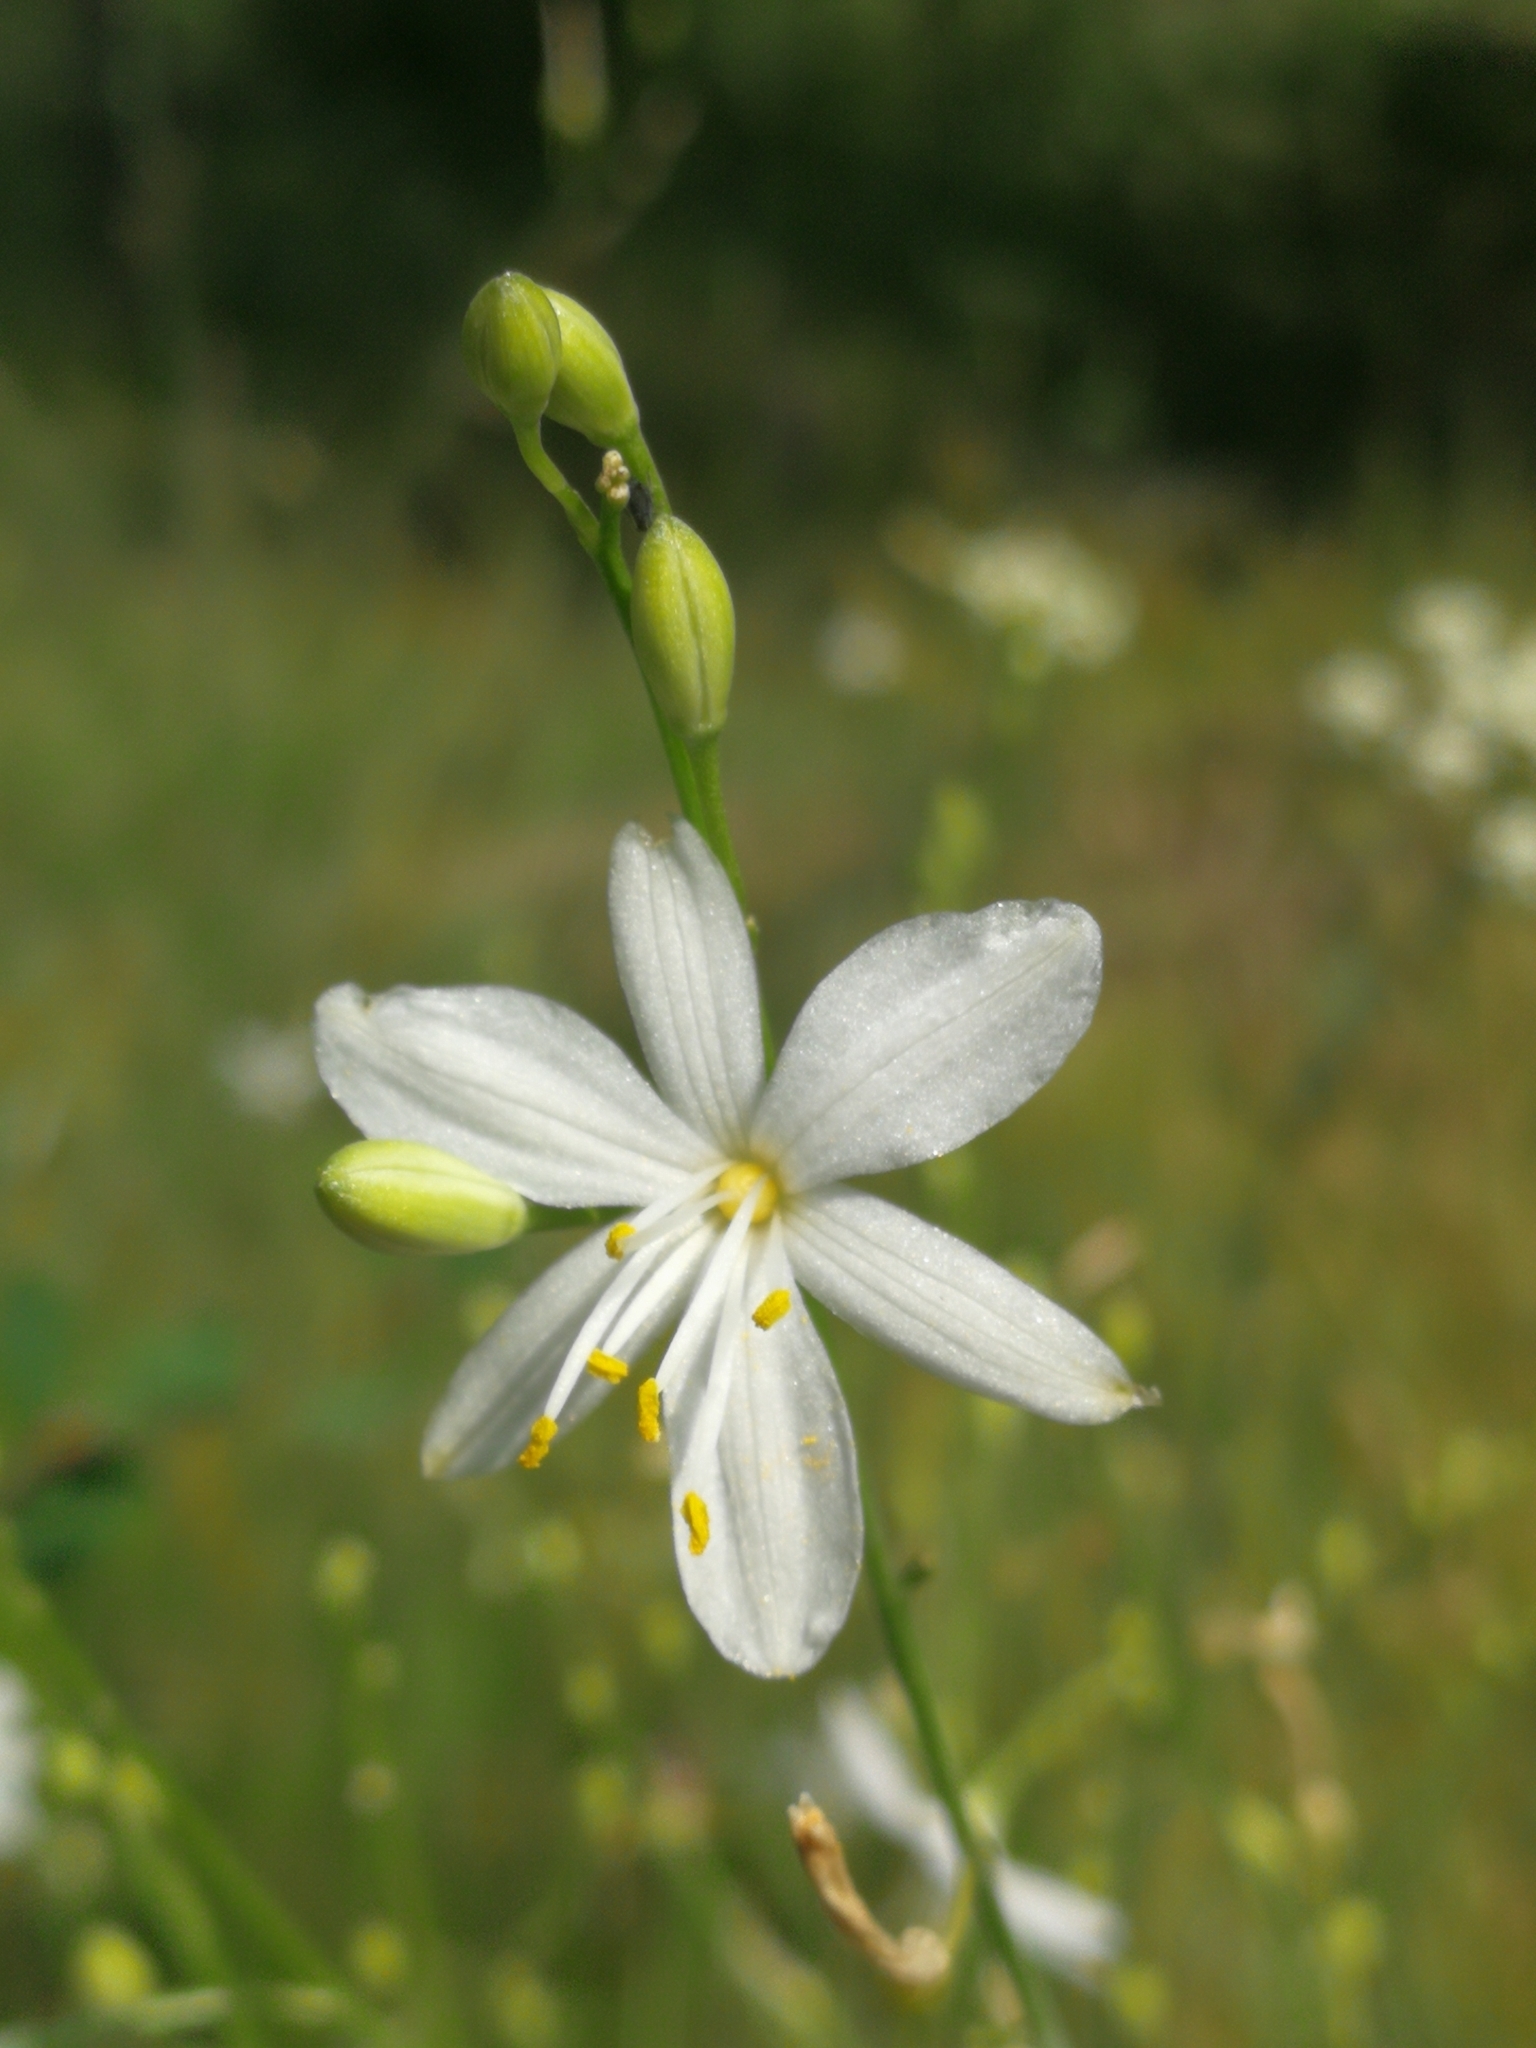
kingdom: Plantae
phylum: Tracheophyta
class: Liliopsida
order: Asparagales
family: Asparagaceae
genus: Anthericum
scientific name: Anthericum liliago
